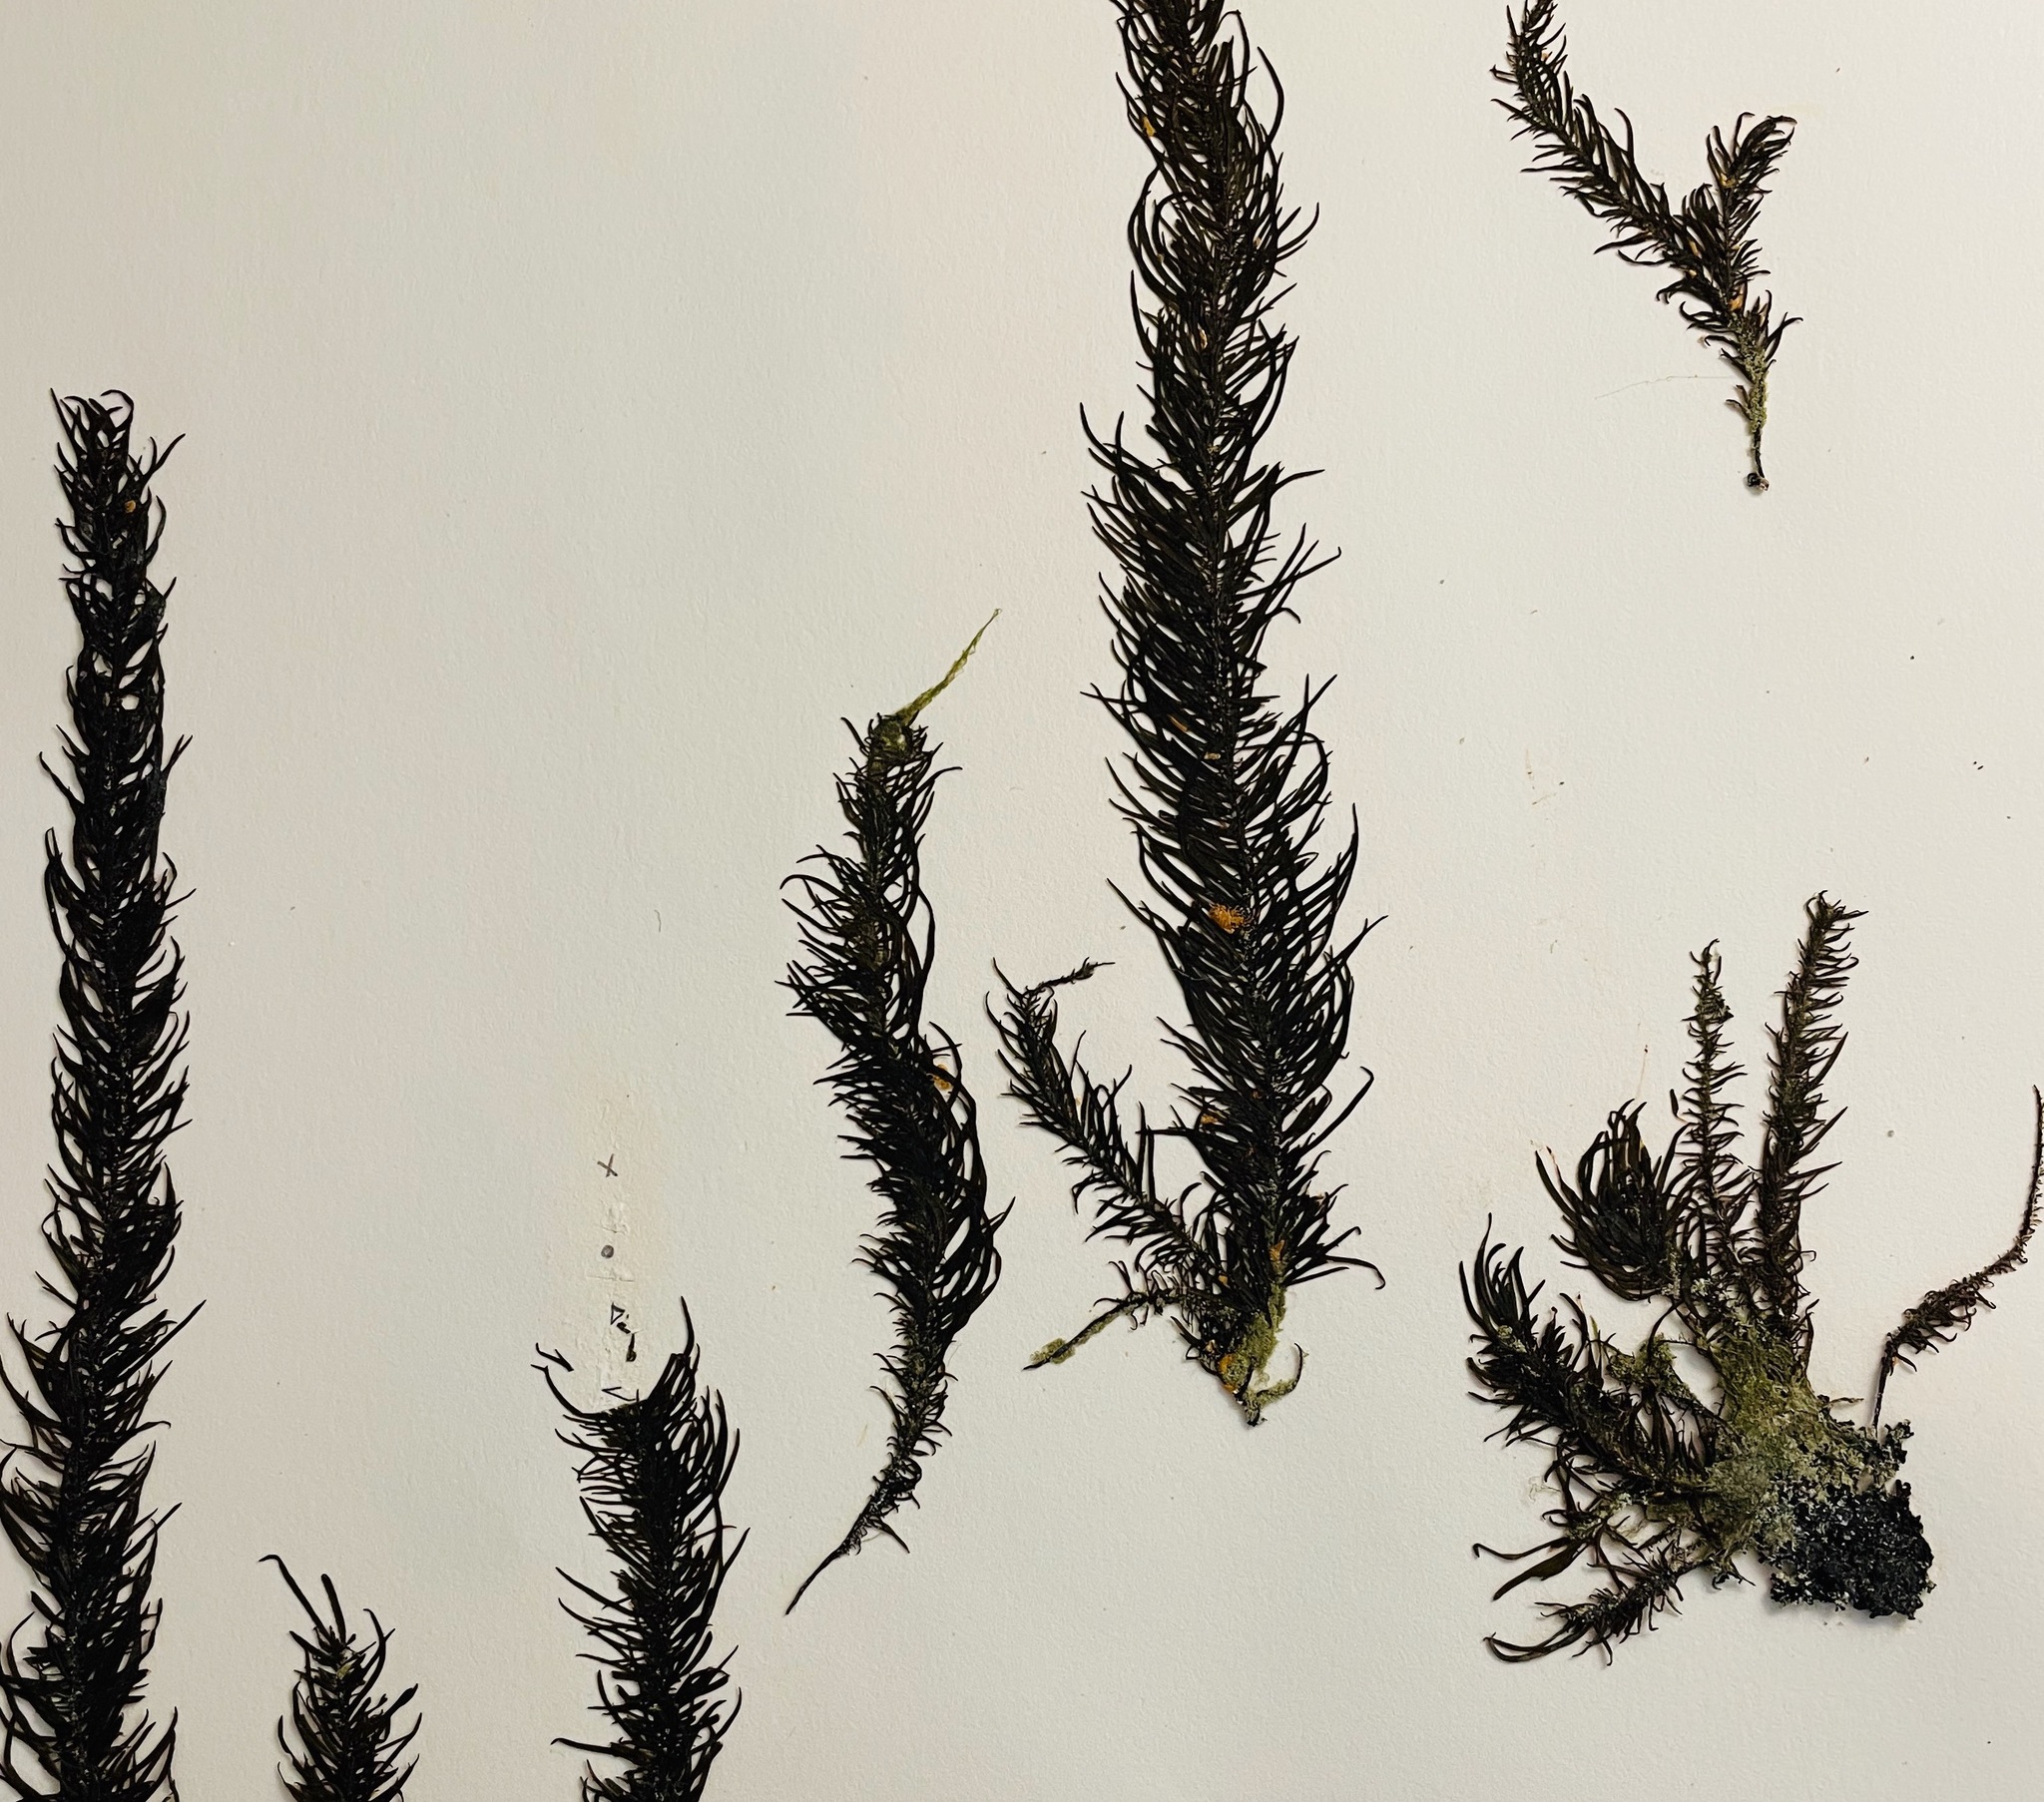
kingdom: Chromista
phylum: Ochrophyta
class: Phaeophyceae
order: Scytosiphonales
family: Scytosiphonaceae
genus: Analipus
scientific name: Analipus japonicus
